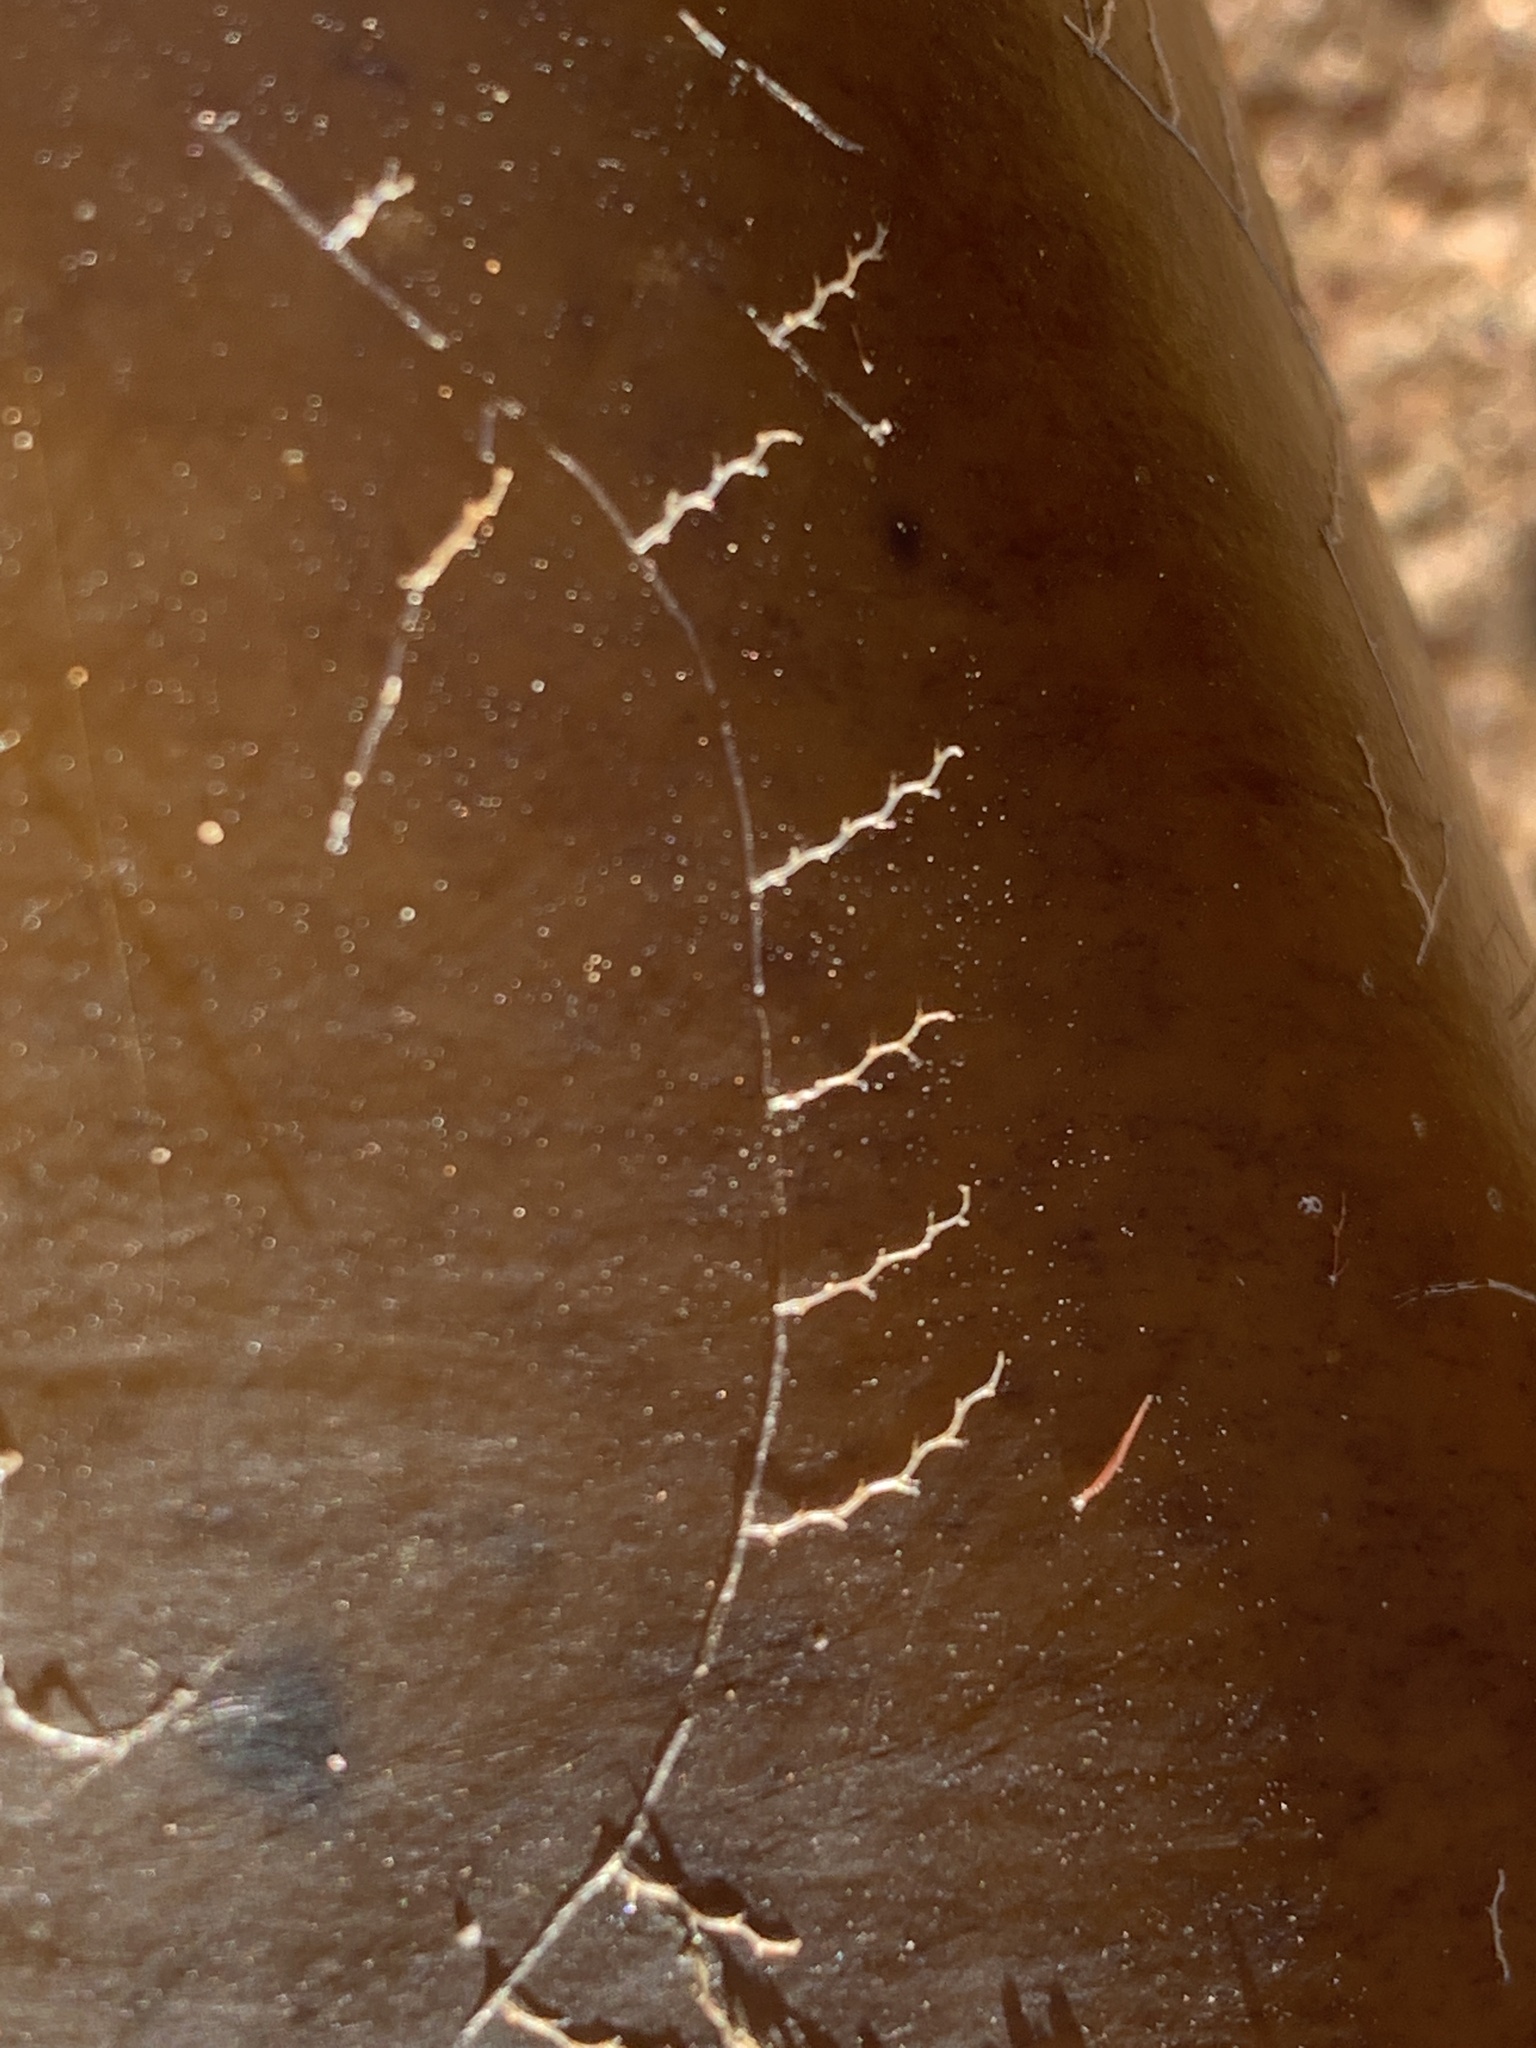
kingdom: Animalia
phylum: Cnidaria
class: Hydrozoa
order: Leptothecata
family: Campanulariidae
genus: Obelia
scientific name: Obelia geniculata
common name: Bell hydroid
